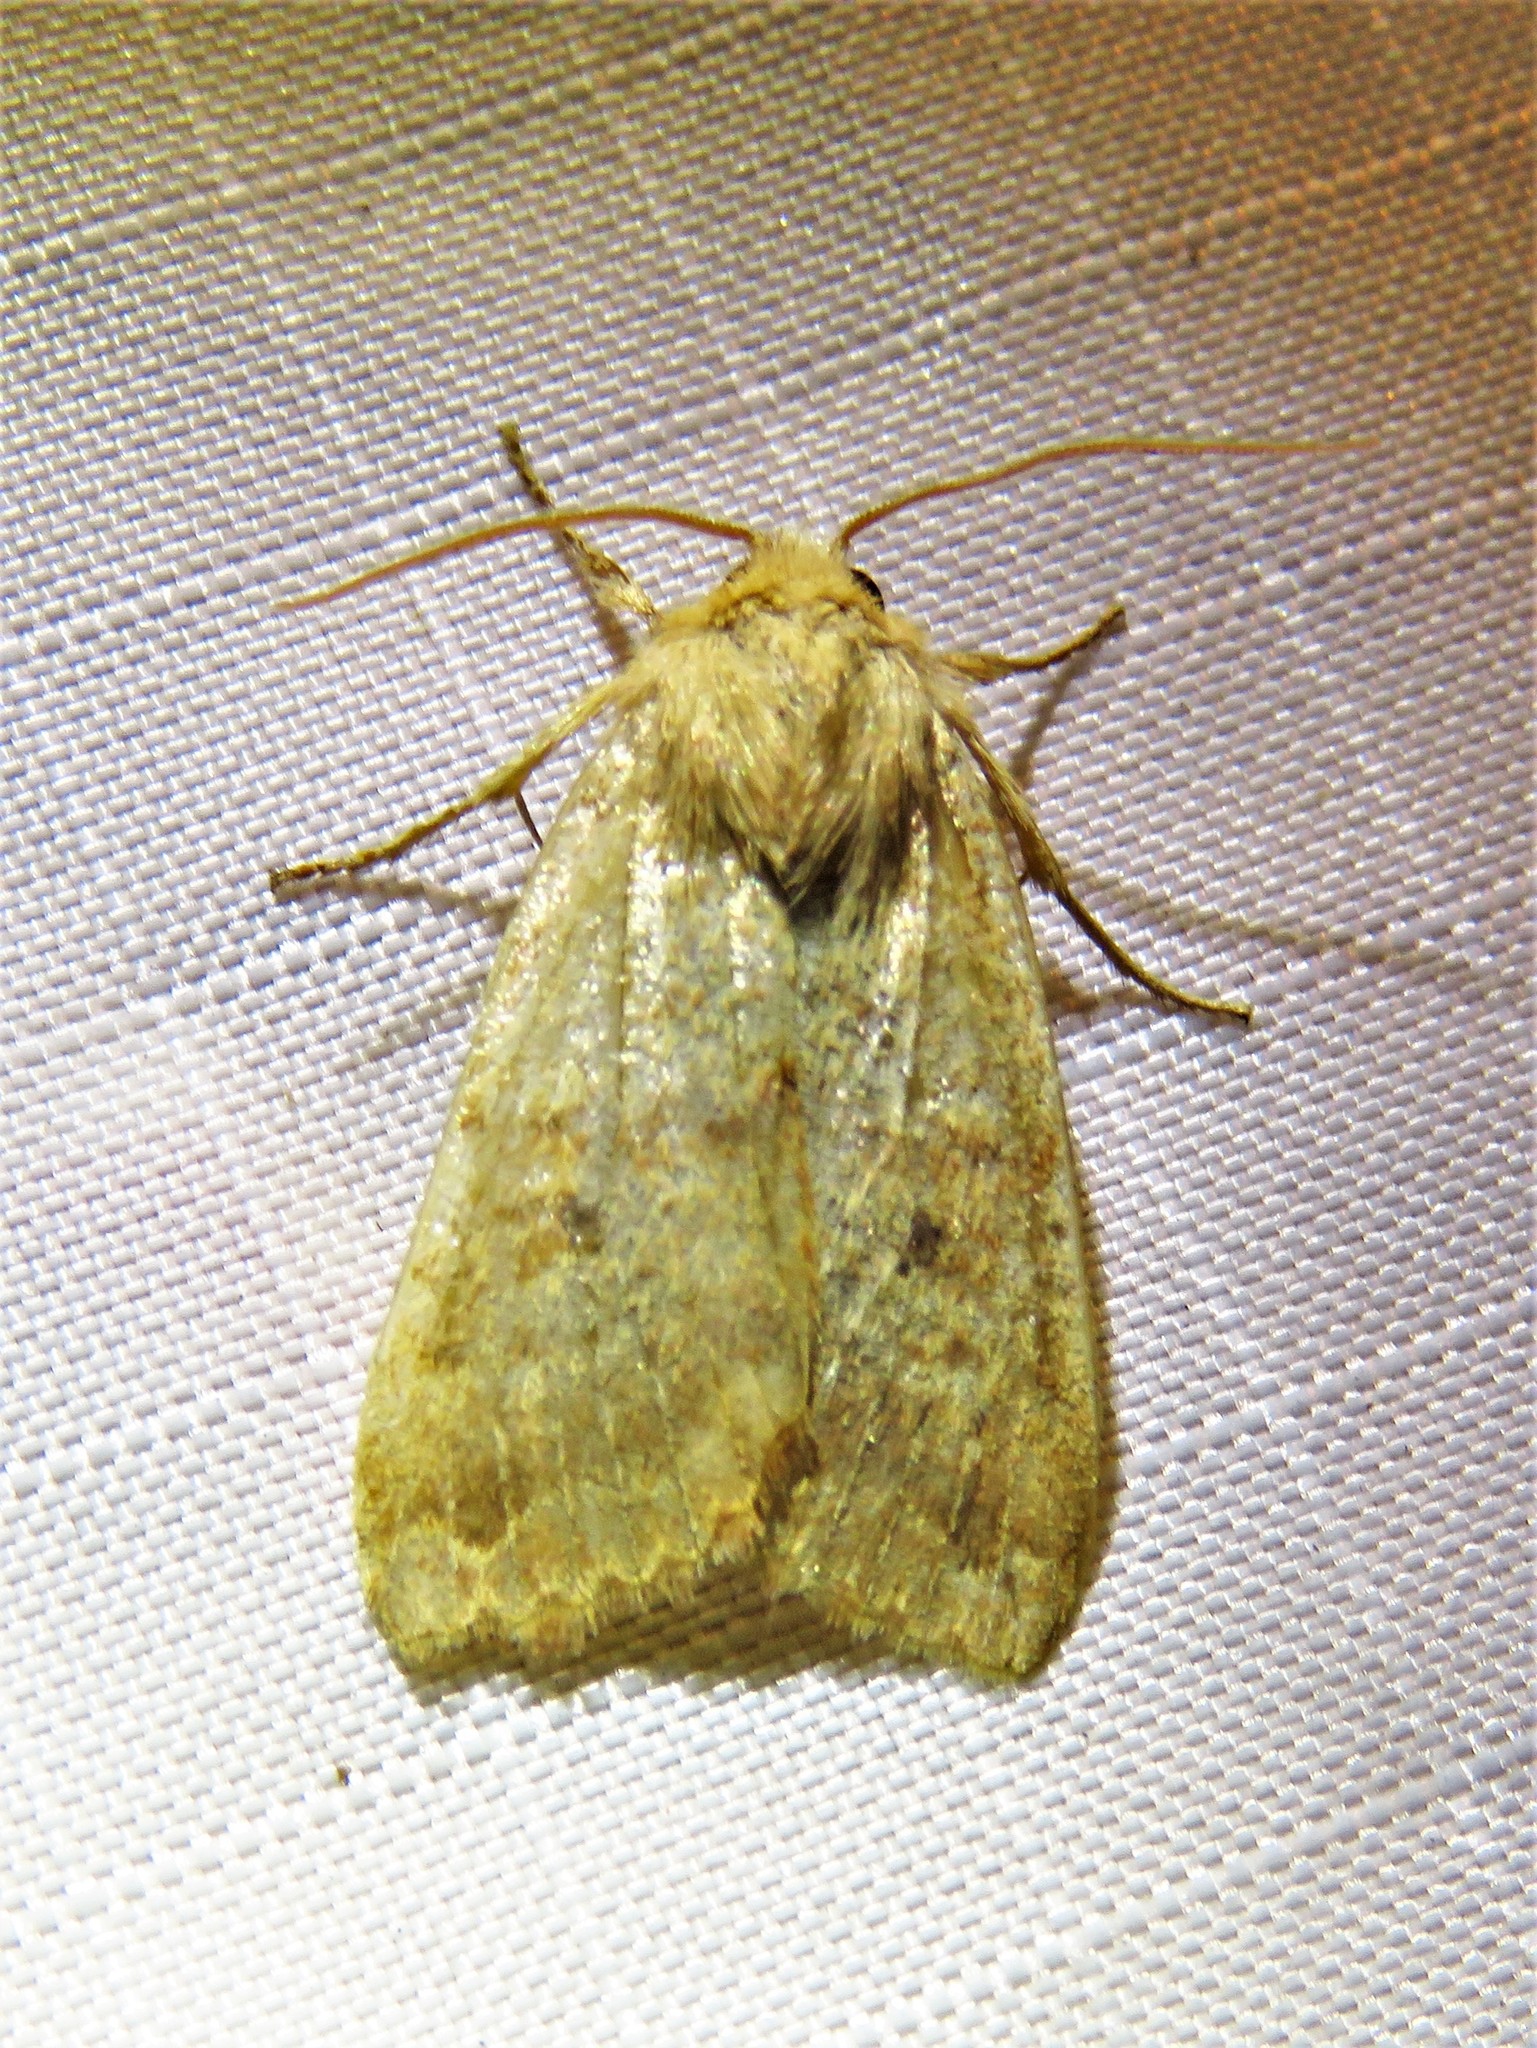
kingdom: Animalia
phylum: Arthropoda
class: Insecta
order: Lepidoptera
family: Noctuidae
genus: Agrochola
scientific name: Agrochola bicolorago
